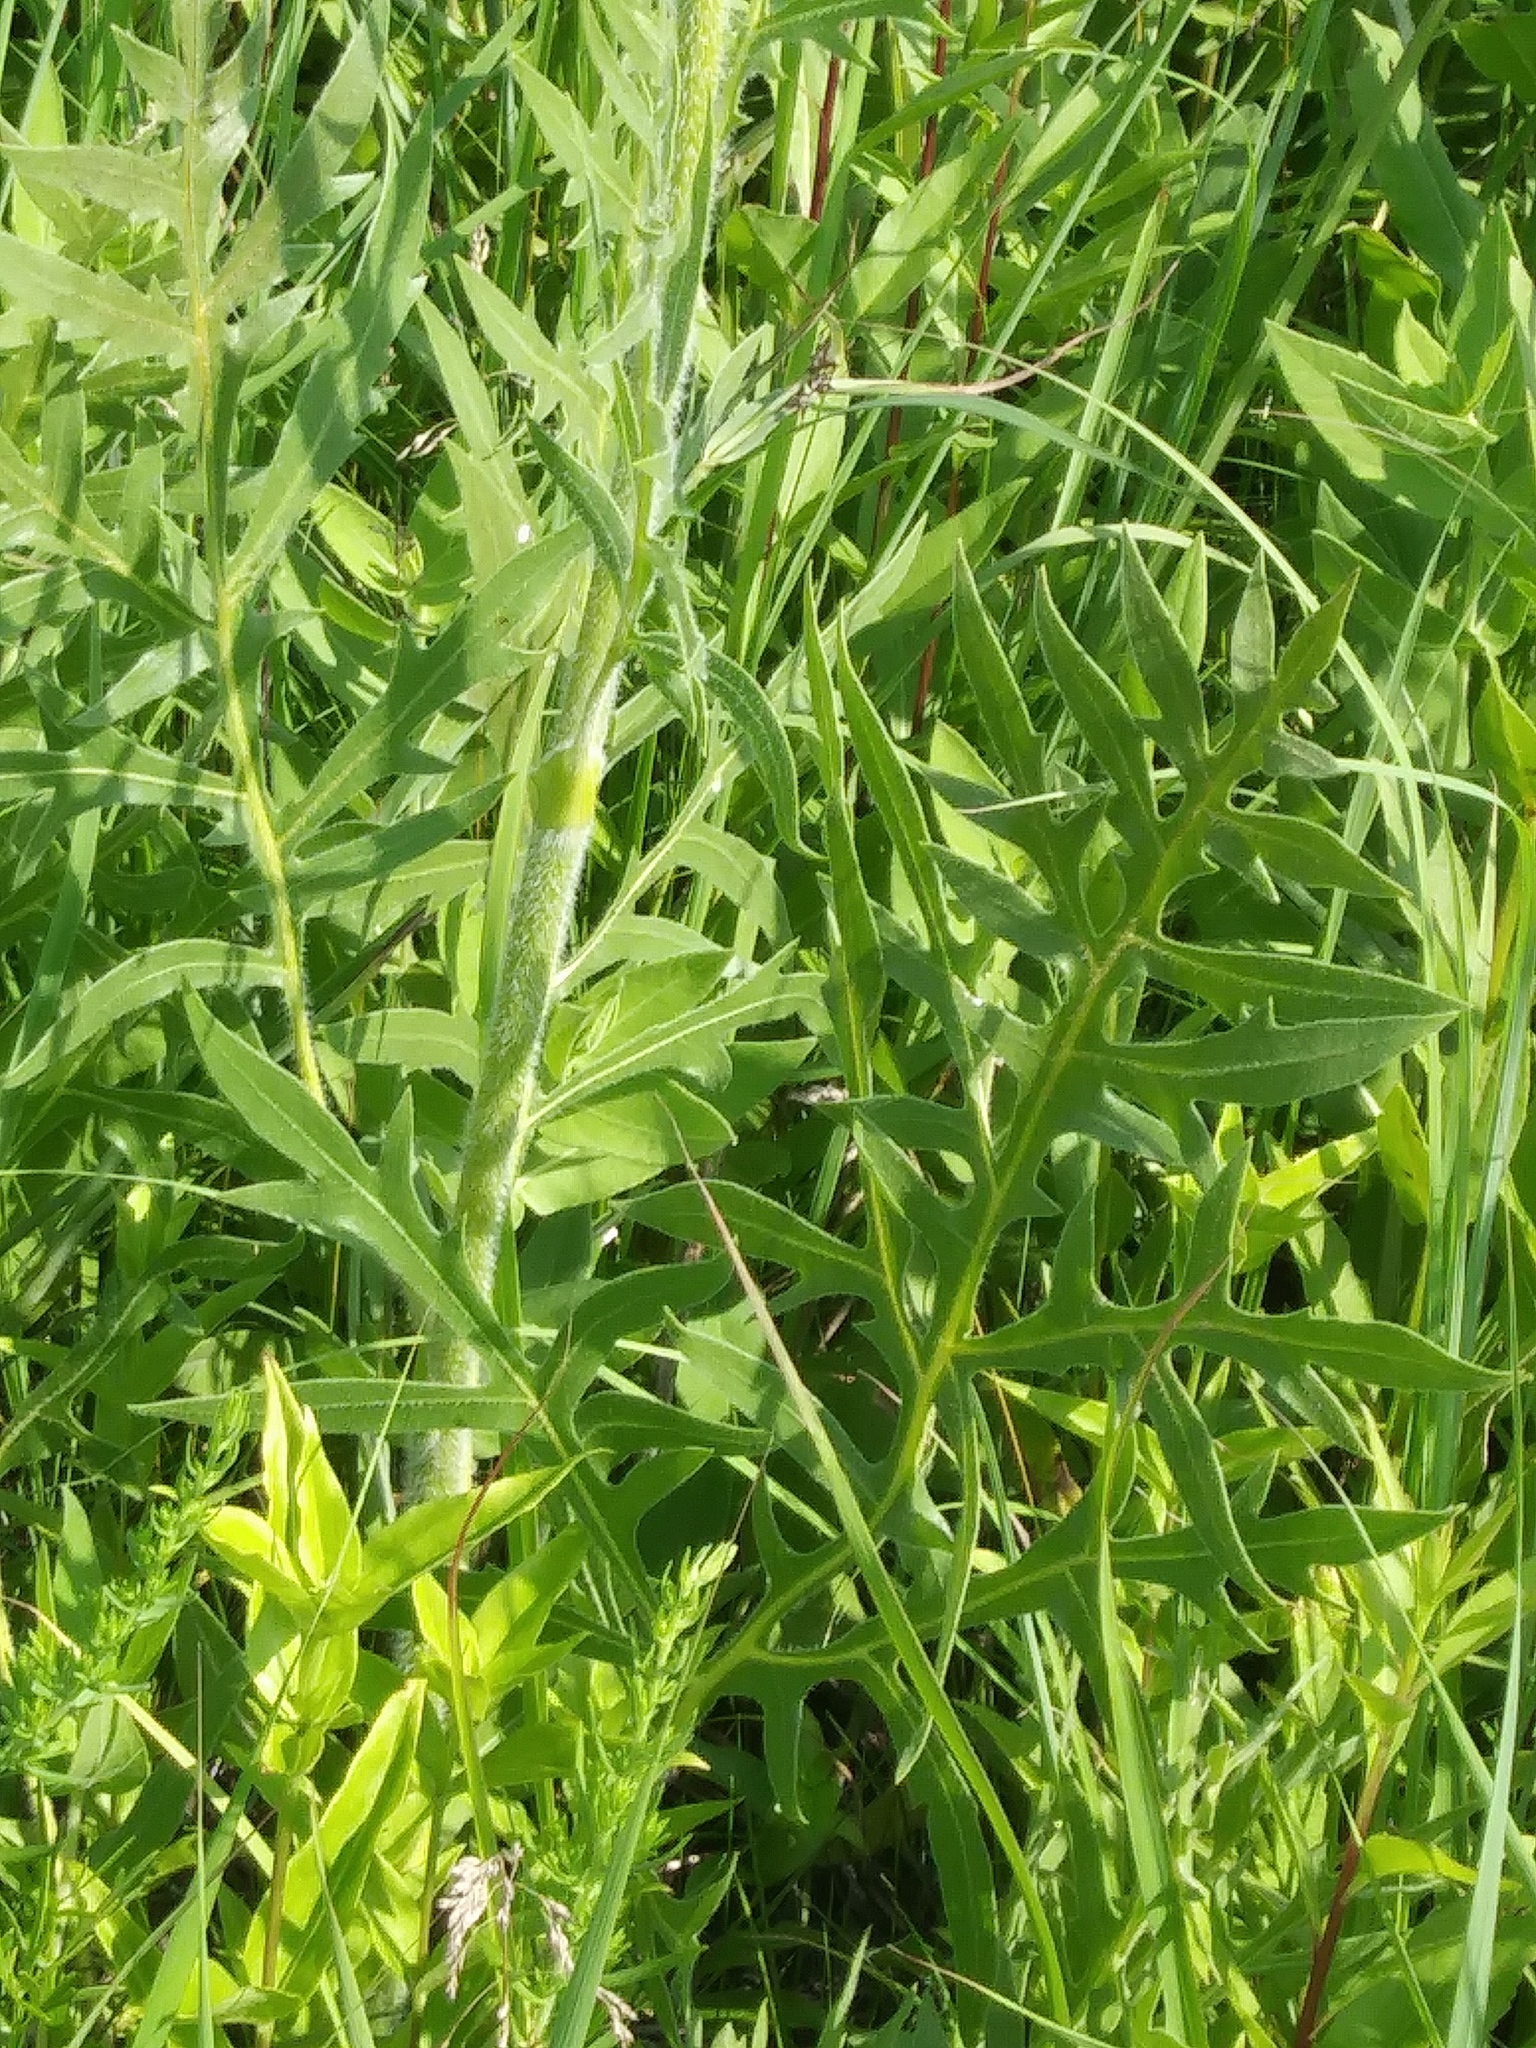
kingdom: Plantae
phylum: Tracheophyta
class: Magnoliopsida
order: Asterales
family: Asteraceae
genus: Silphium
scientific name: Silphium laciniatum
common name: Polarplant
